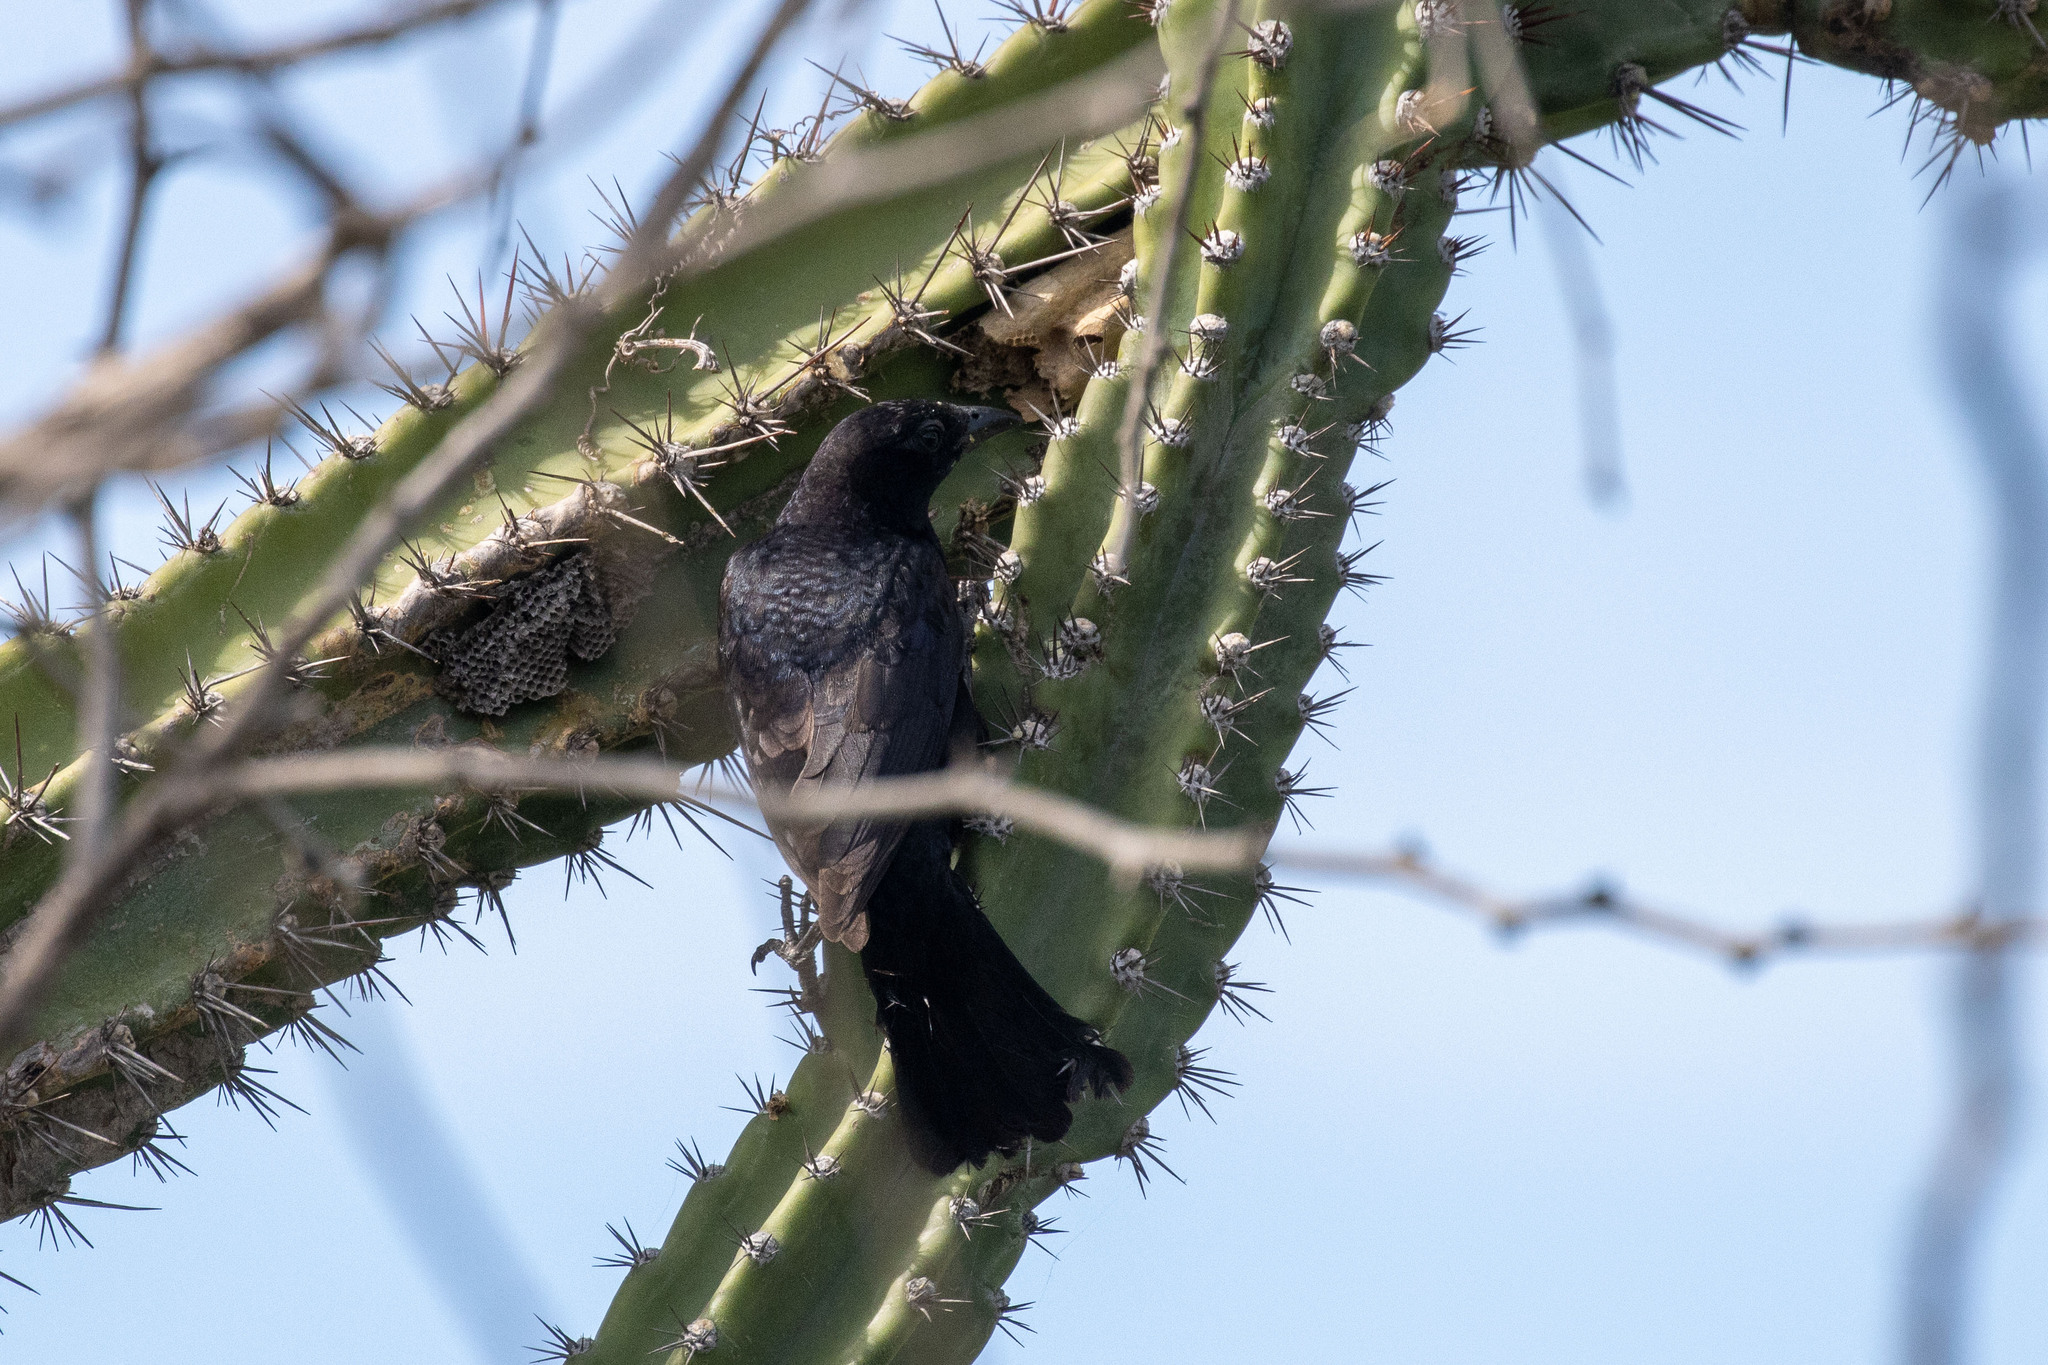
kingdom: Animalia
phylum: Chordata
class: Aves
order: Passeriformes
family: Thraupidae
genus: Compsothraupis
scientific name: Compsothraupis loricata
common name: Scarlet-throated tanager
